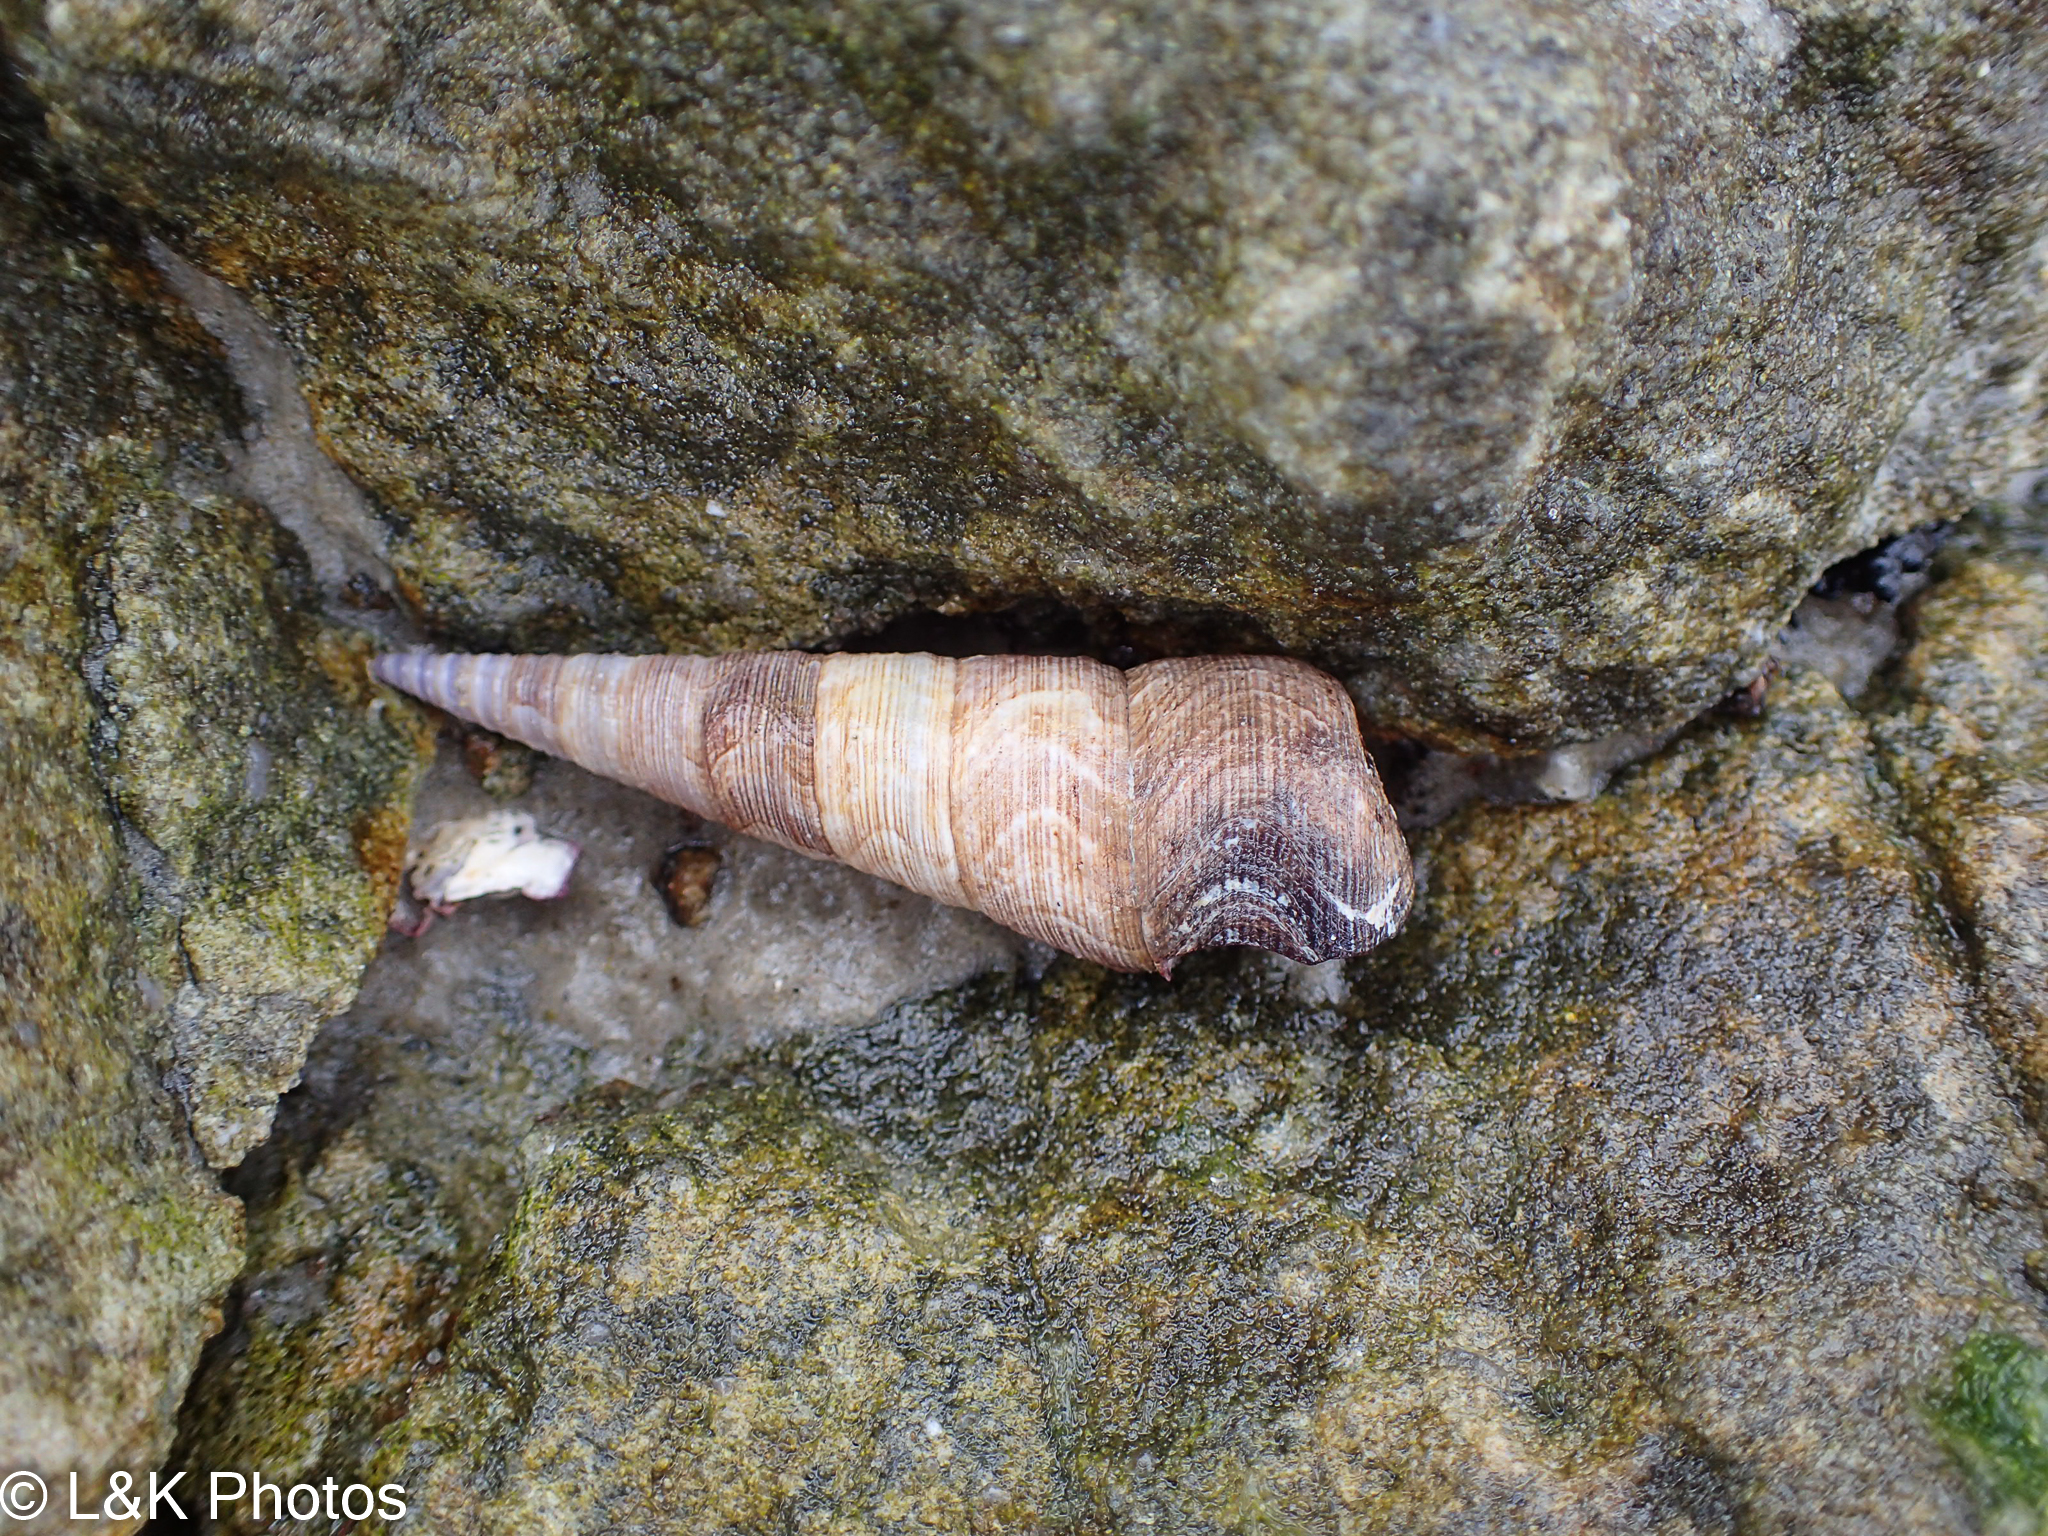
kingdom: Animalia
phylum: Mollusca
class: Gastropoda
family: Turritellidae
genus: Maoricolpus
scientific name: Maoricolpus roseus
